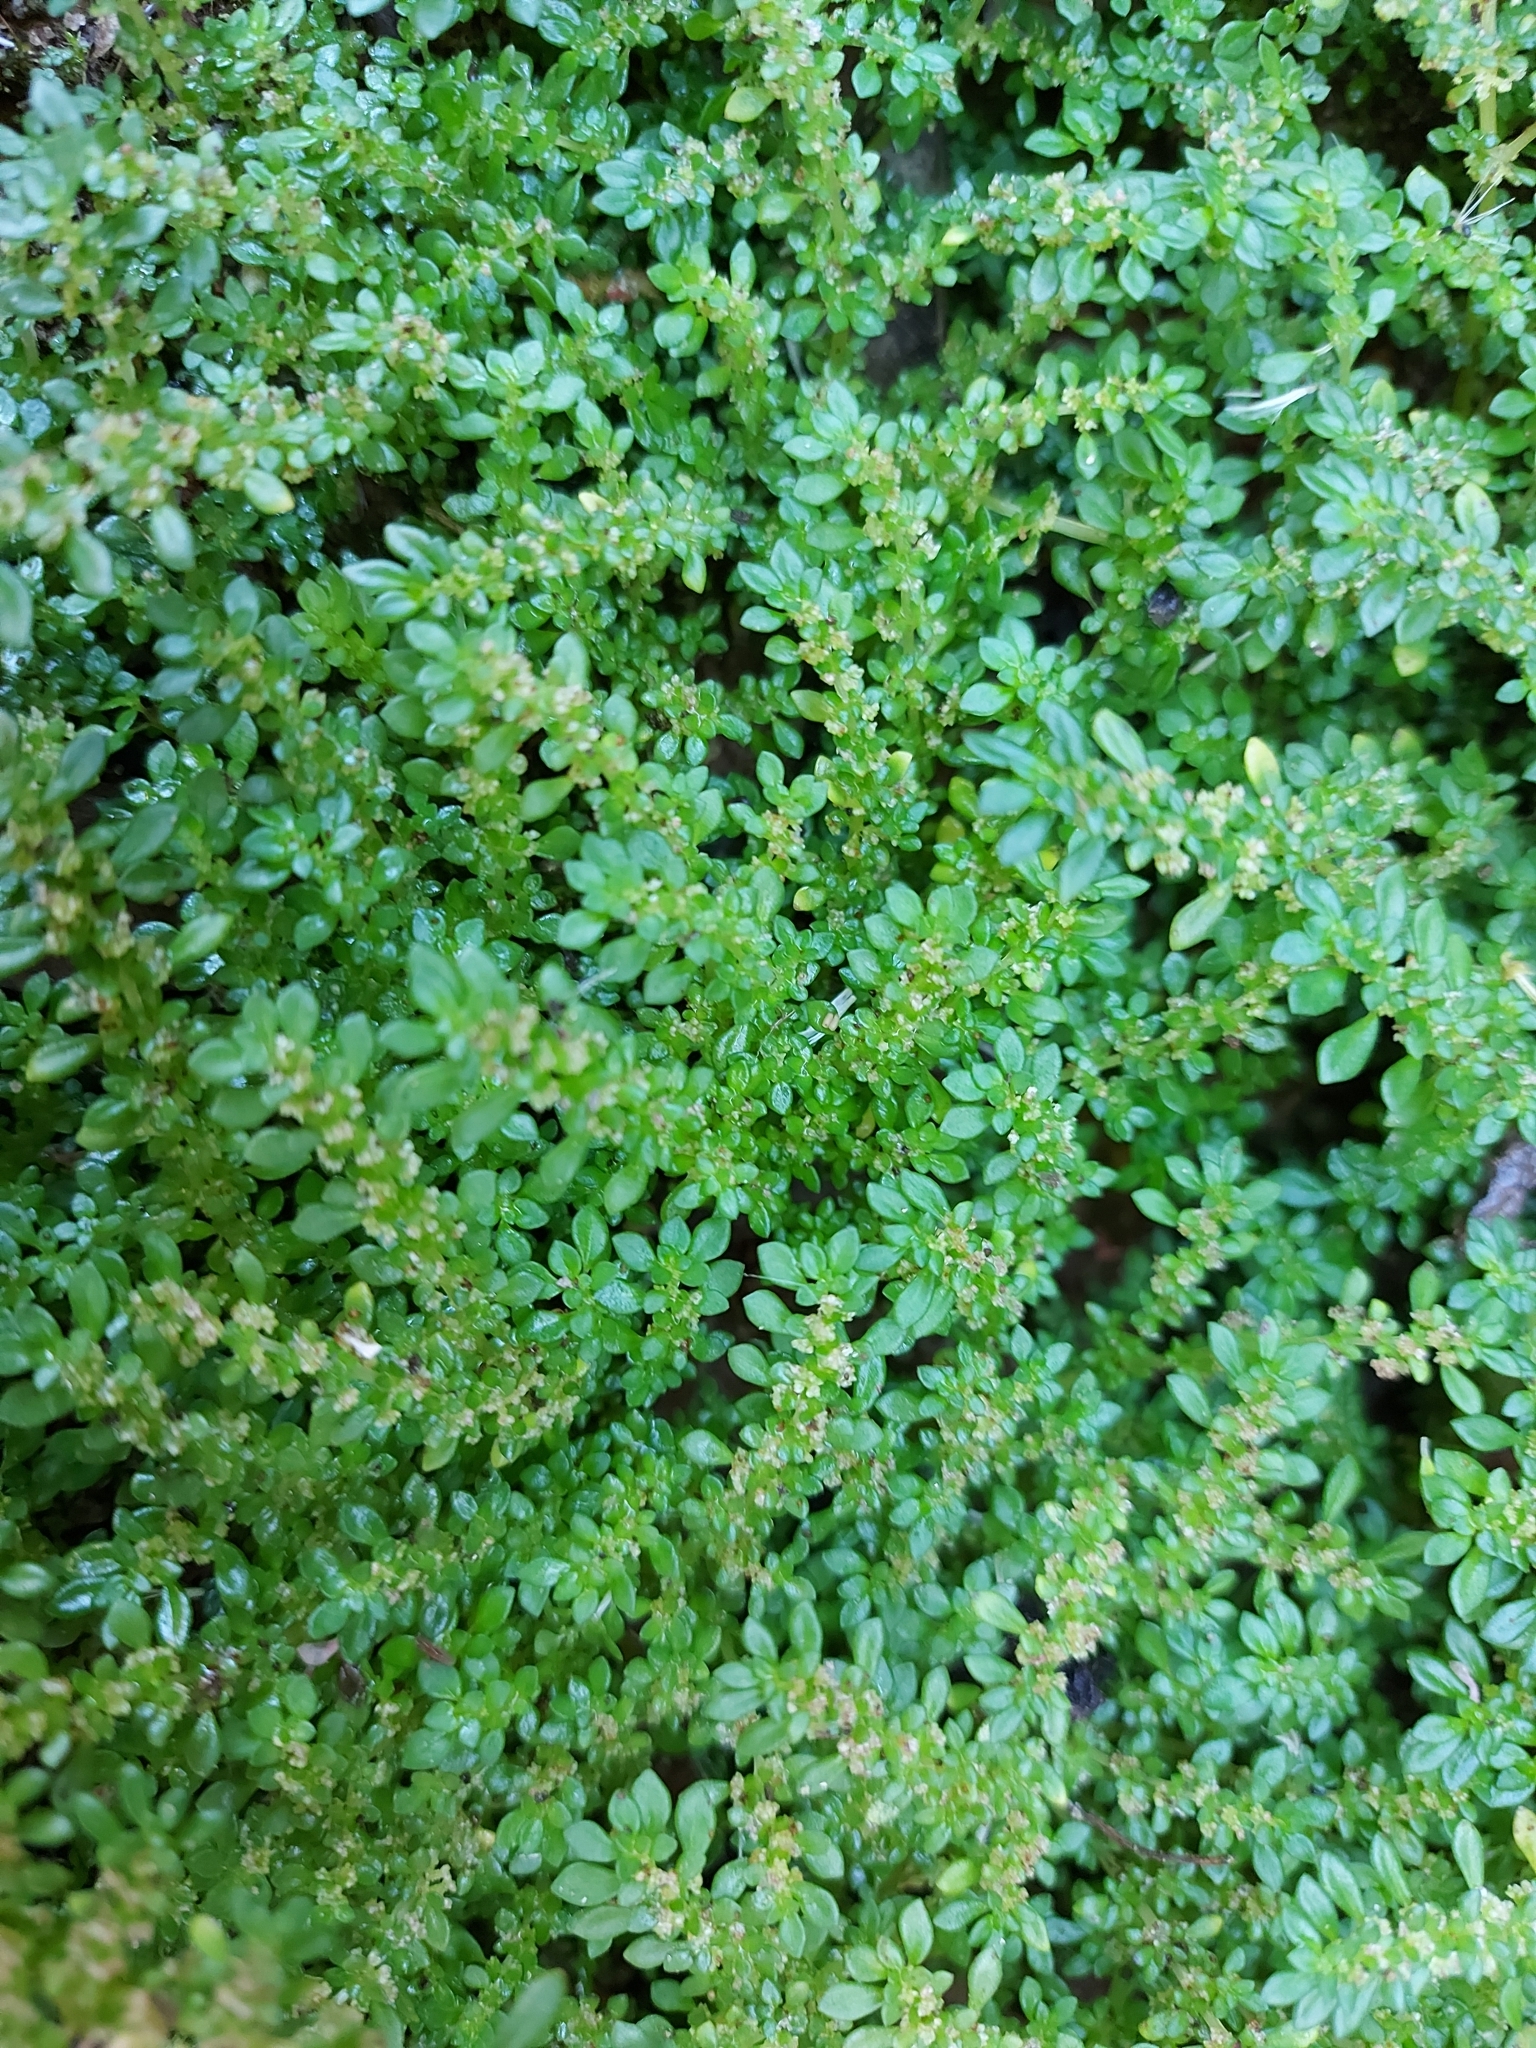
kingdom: Plantae
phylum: Tracheophyta
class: Magnoliopsida
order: Rosales
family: Urticaceae
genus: Pilea
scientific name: Pilea microphylla
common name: Artillery-plant
